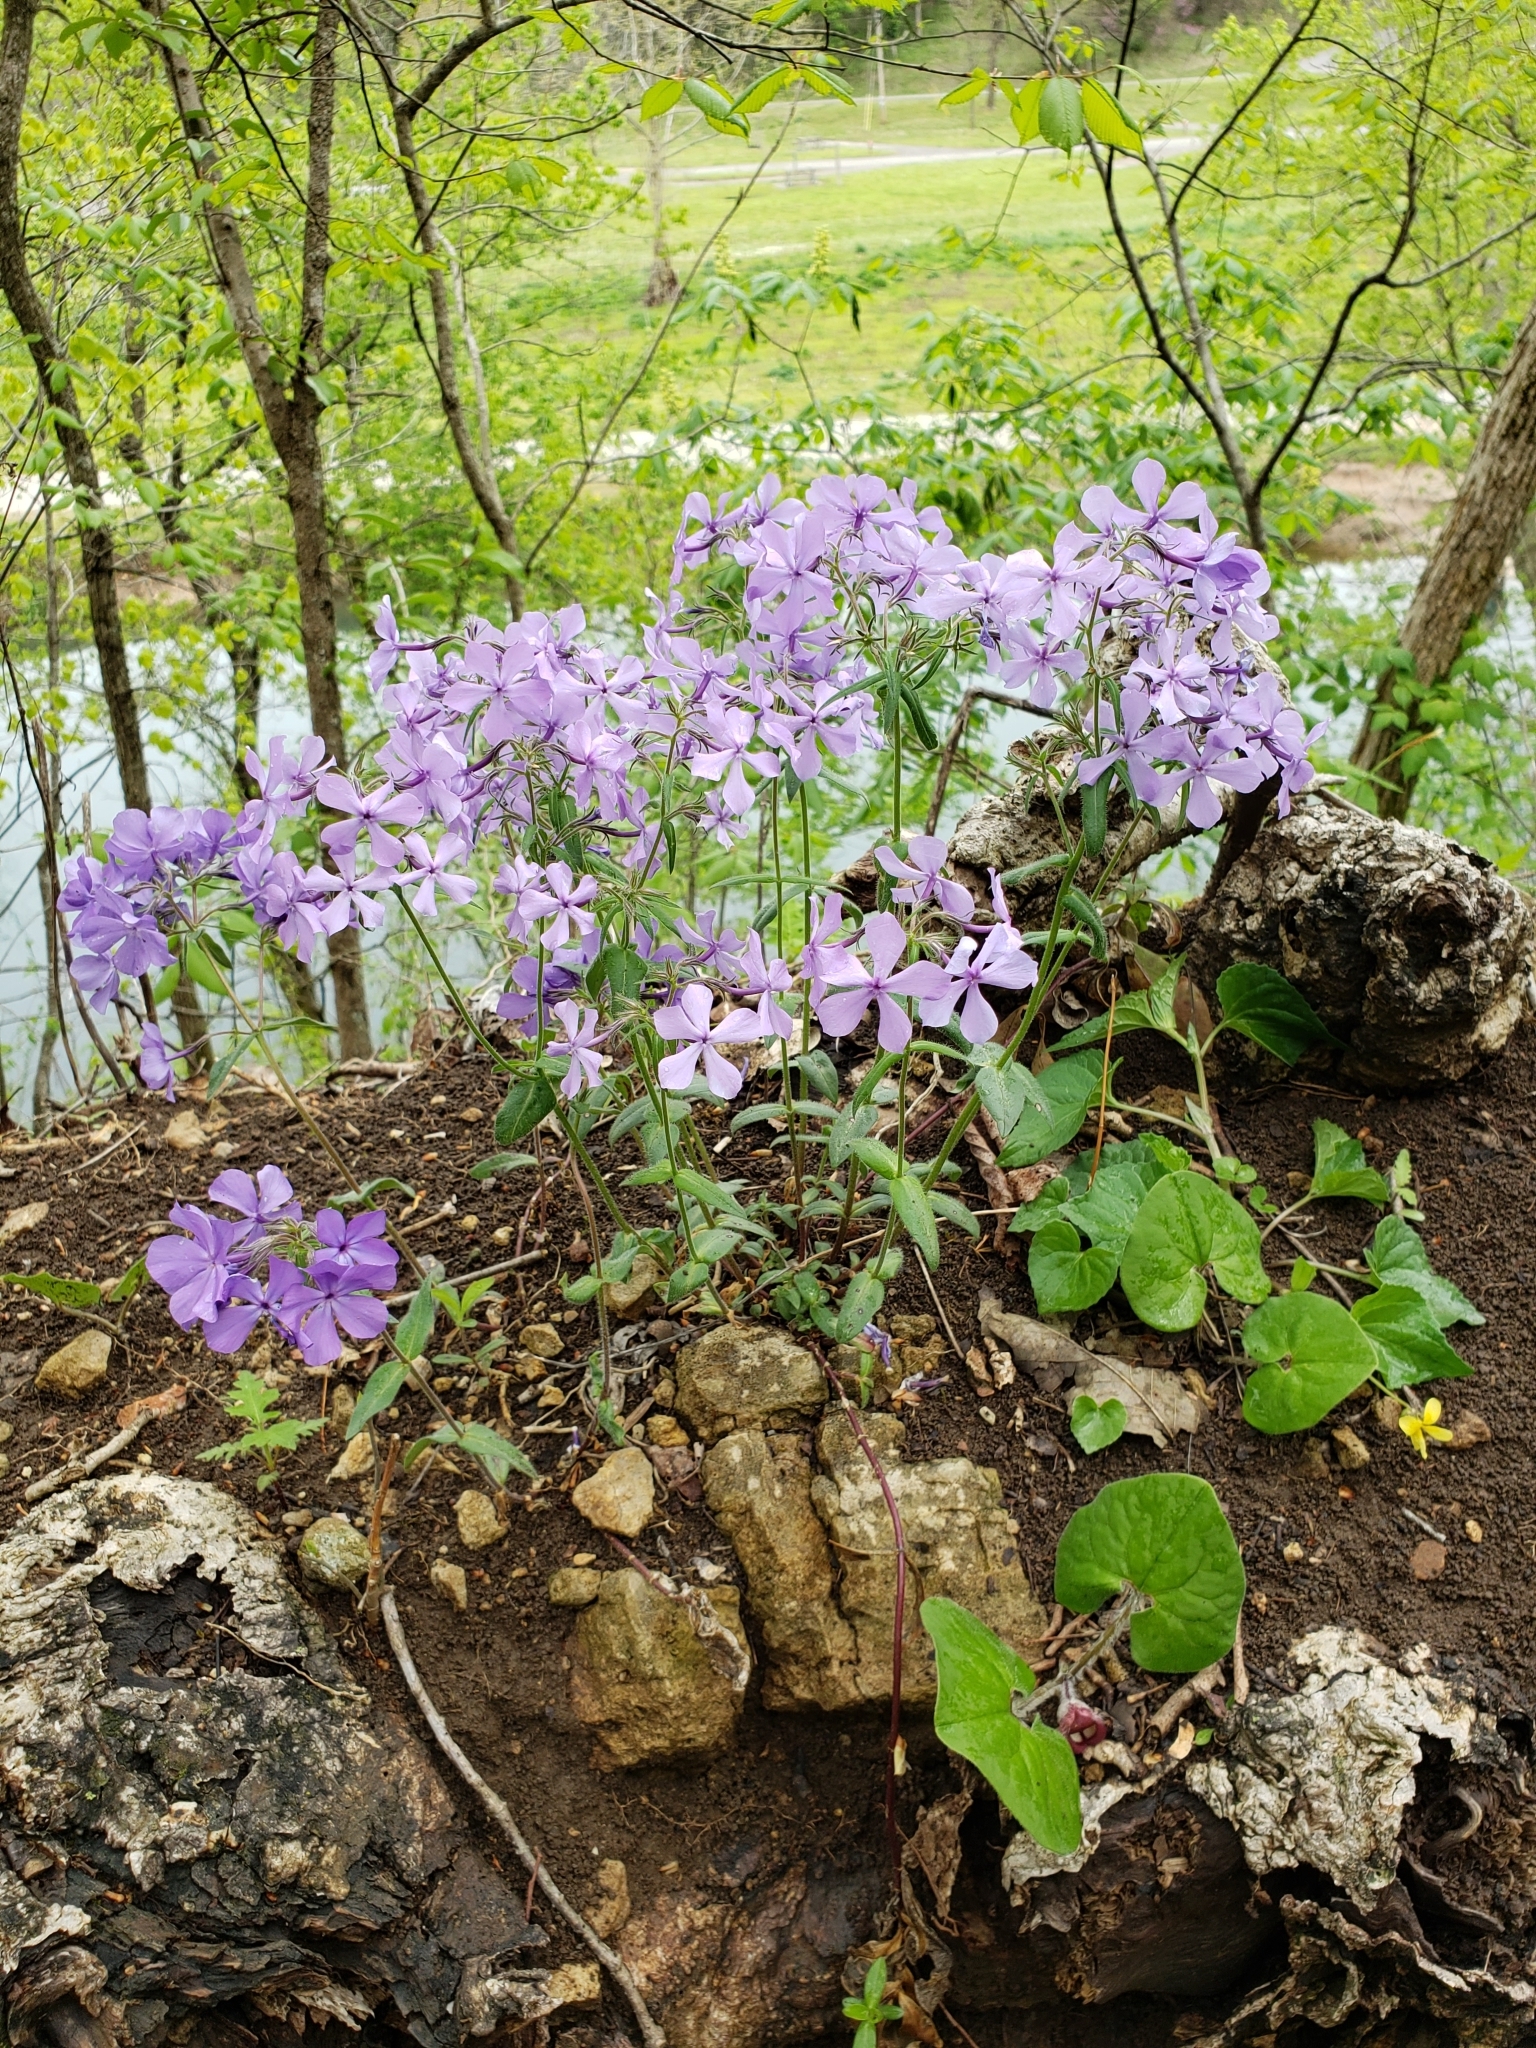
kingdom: Plantae
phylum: Tracheophyta
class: Magnoliopsida
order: Ericales
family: Polemoniaceae
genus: Phlox
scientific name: Phlox divaricata
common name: Blue phlox
